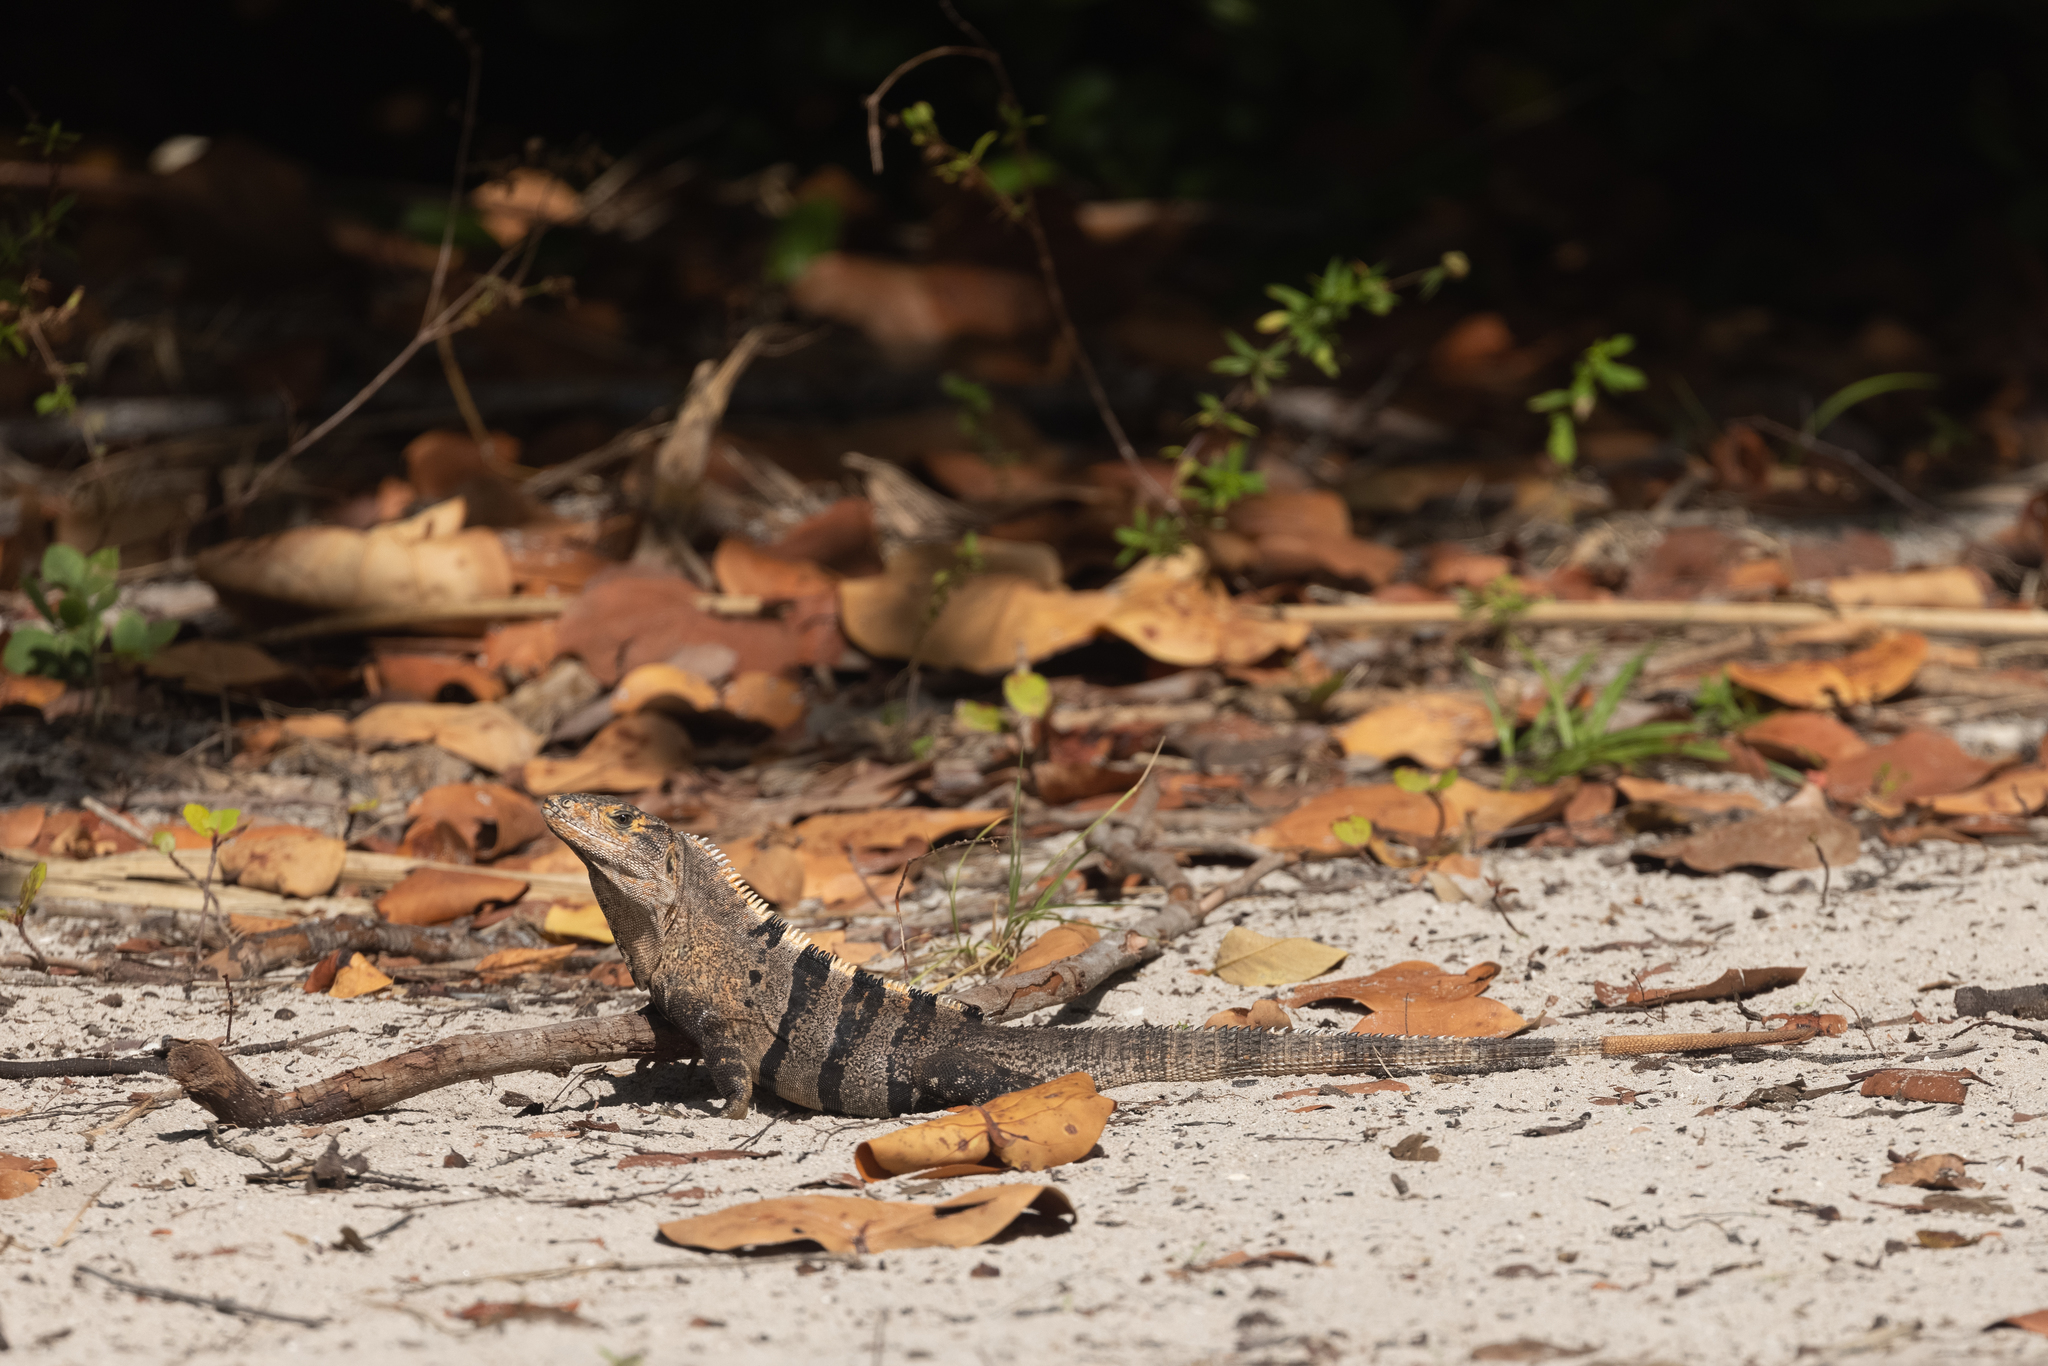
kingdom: Animalia
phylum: Chordata
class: Squamata
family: Iguanidae
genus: Ctenosaura
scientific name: Ctenosaura similis
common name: Black spiny-tailed iguana
